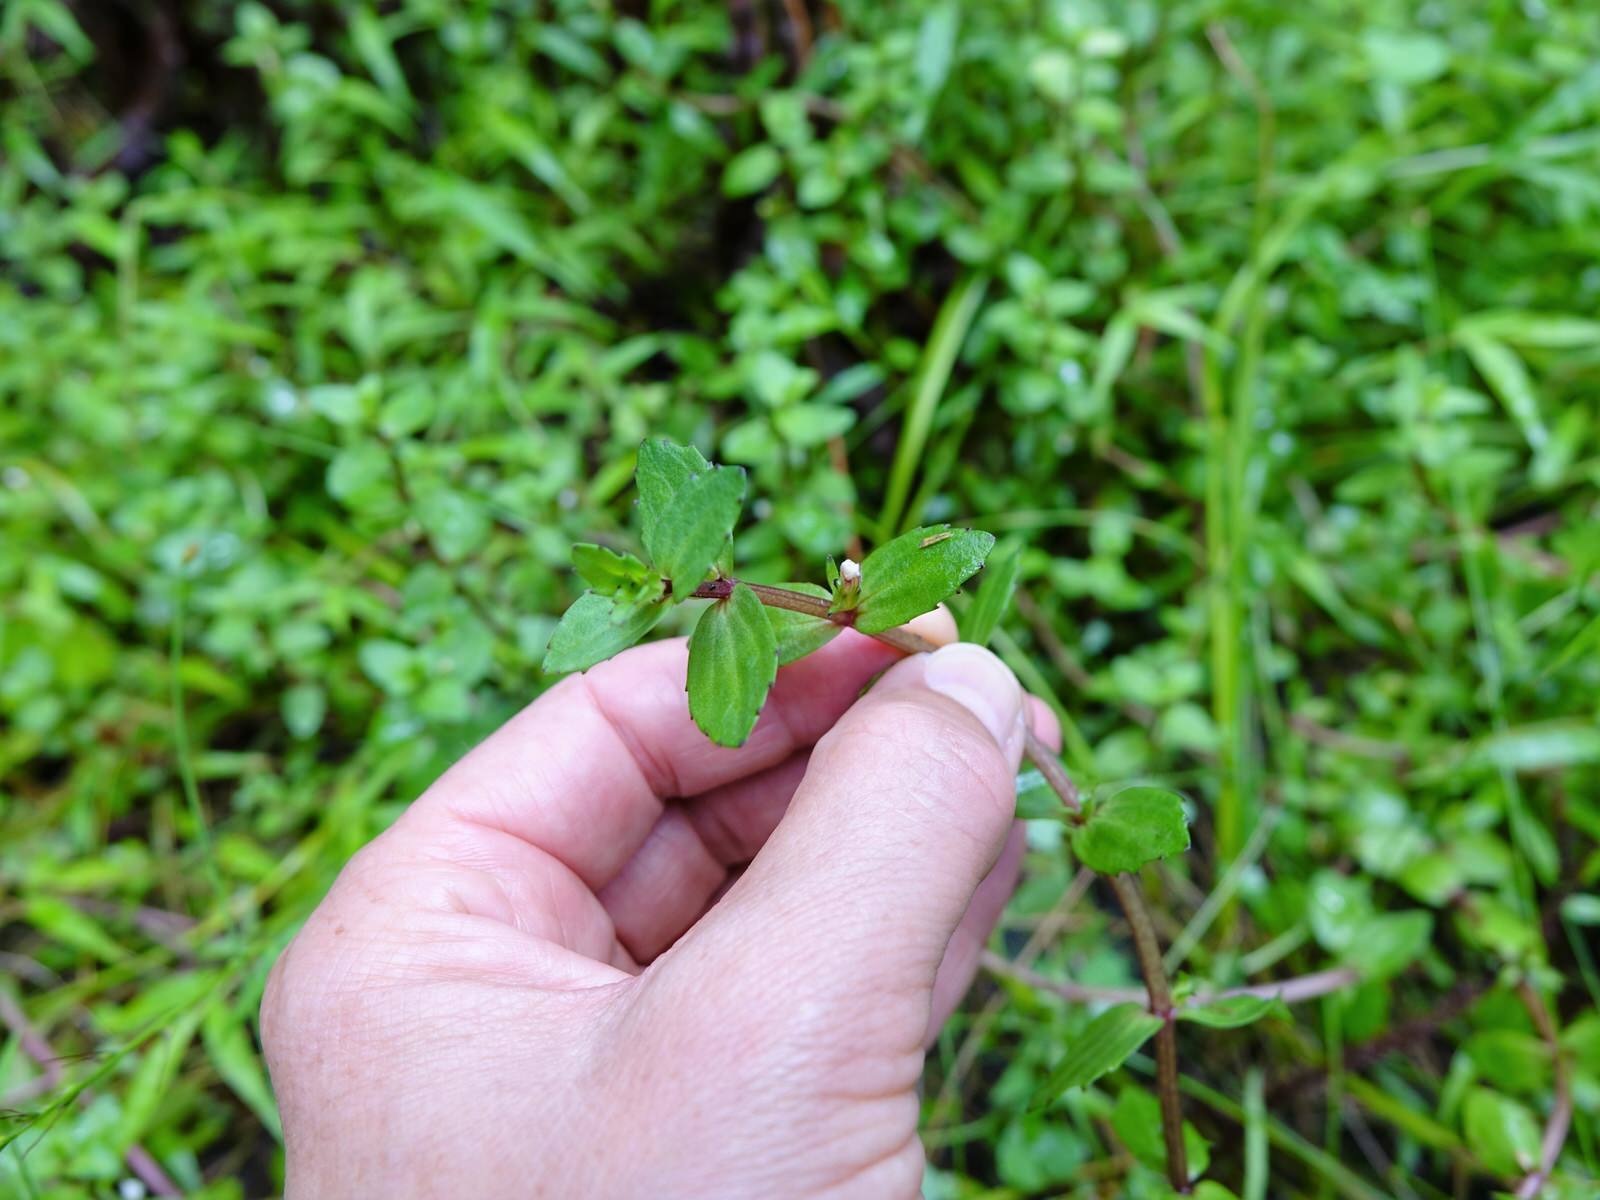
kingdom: Plantae
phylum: Tracheophyta
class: Magnoliopsida
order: Lamiales
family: Plantaginaceae
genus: Gratiola
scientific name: Gratiola sexdentata
